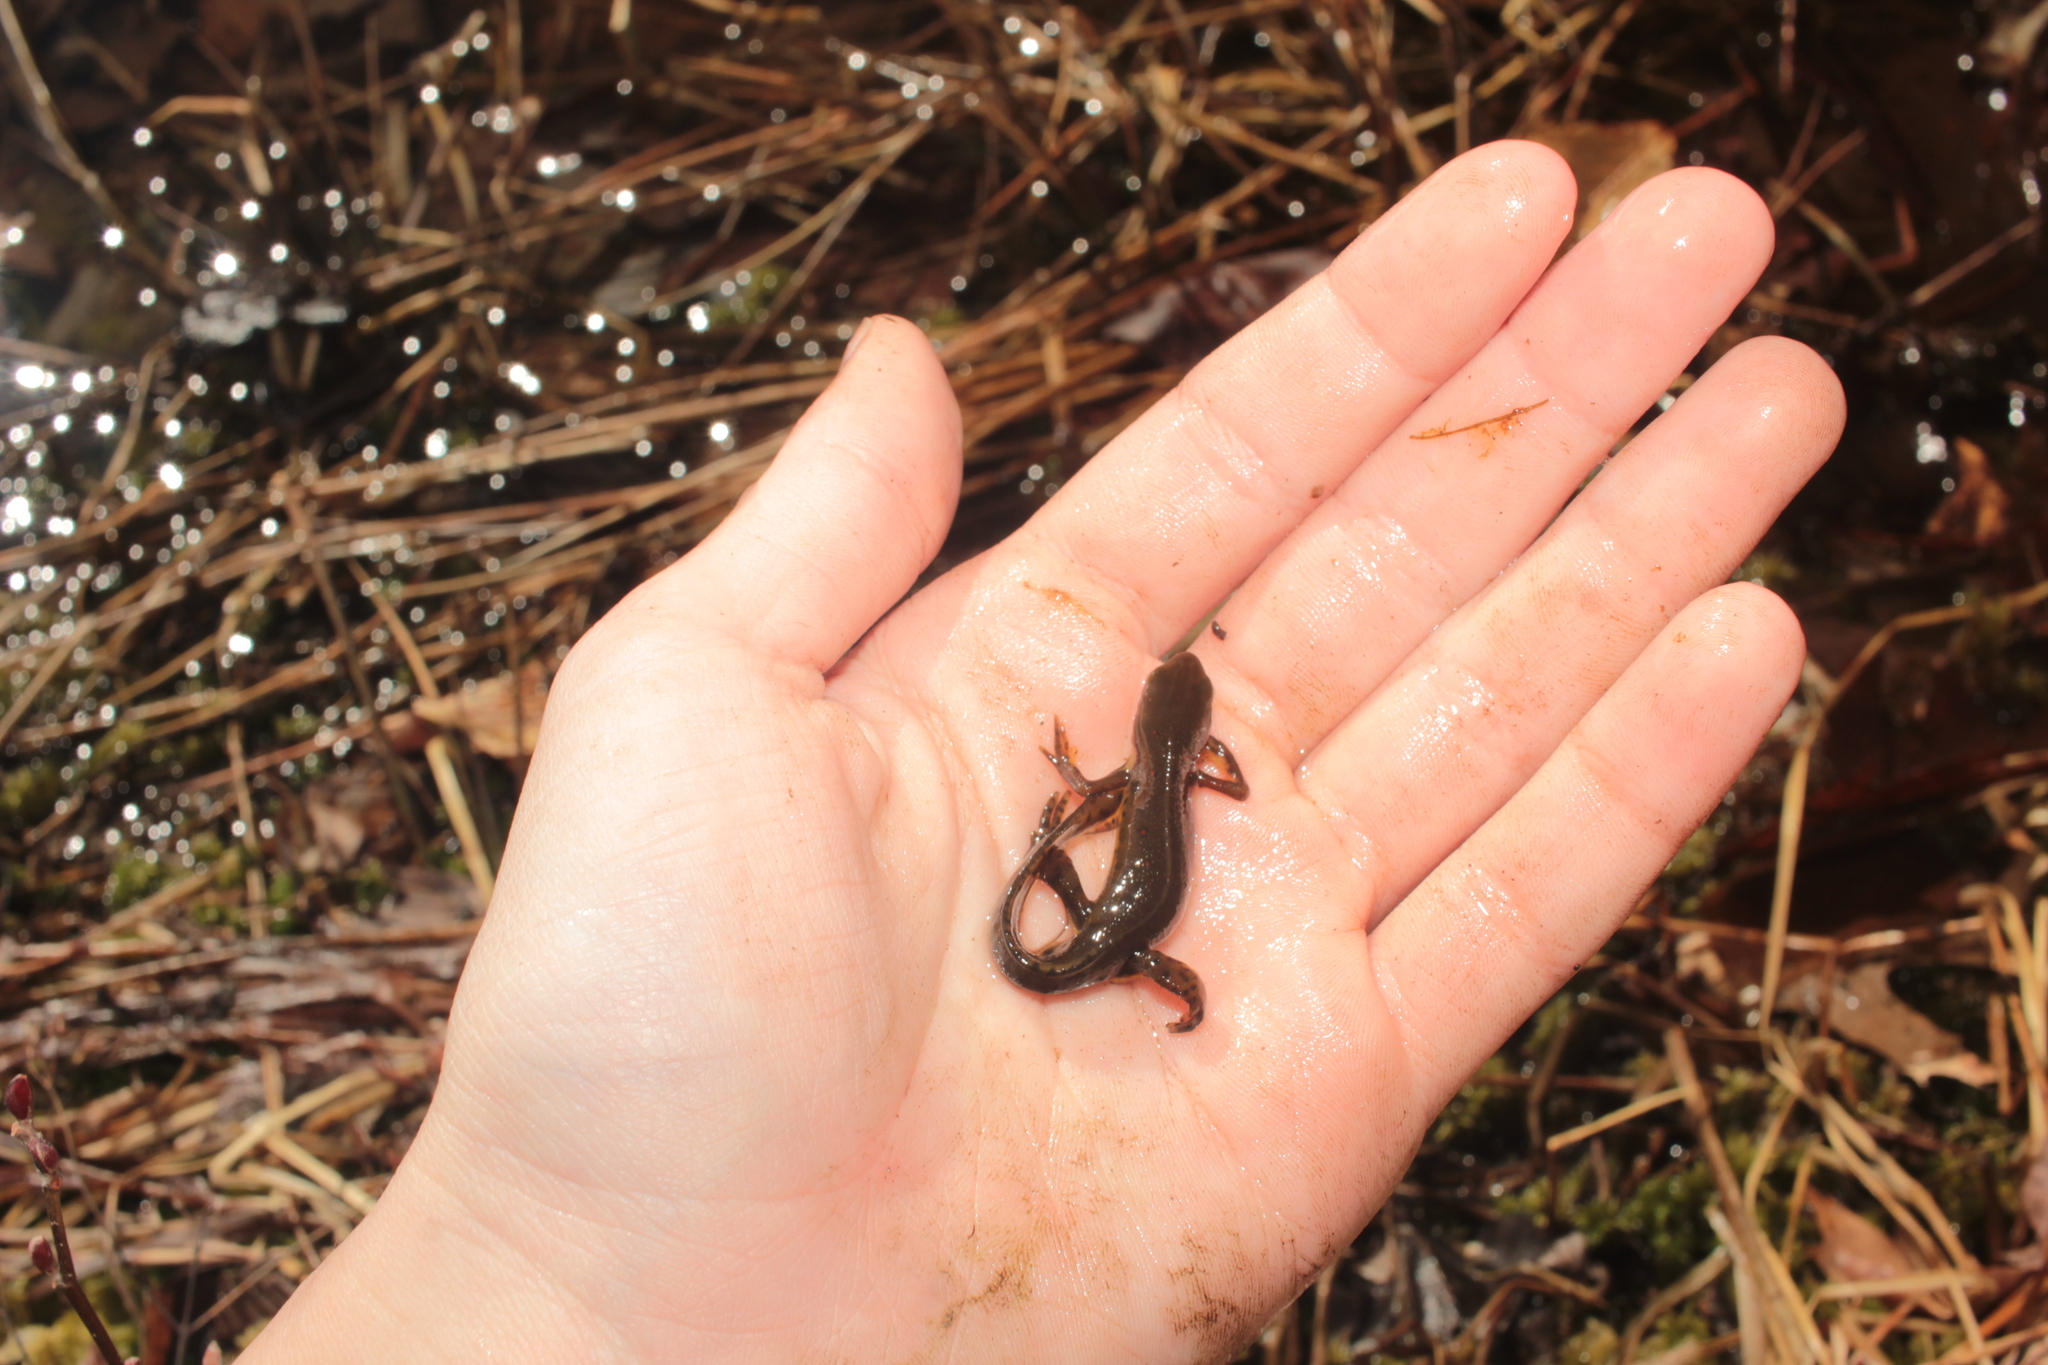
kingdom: Animalia
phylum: Chordata
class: Amphibia
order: Caudata
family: Salamandridae
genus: Notophthalmus
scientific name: Notophthalmus viridescens
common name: Eastern newt
